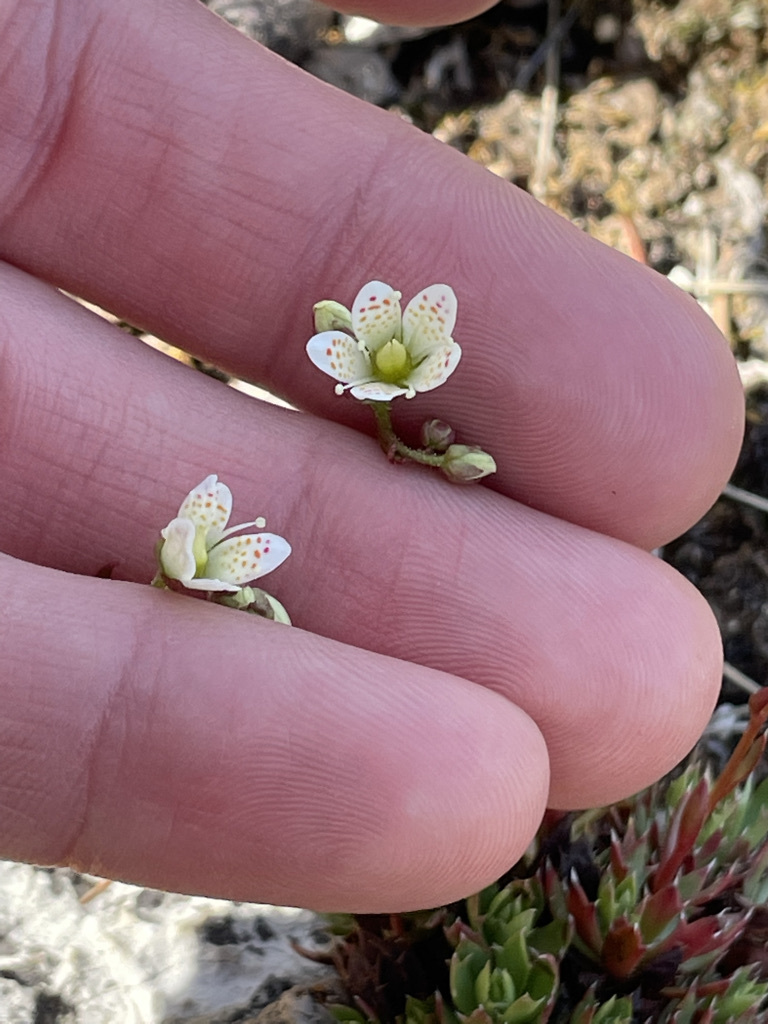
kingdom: Plantae
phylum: Tracheophyta
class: Magnoliopsida
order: Saxifragales
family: Saxifragaceae
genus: Saxifraga
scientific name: Saxifraga tricuspidata
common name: Prickly saxifrage
